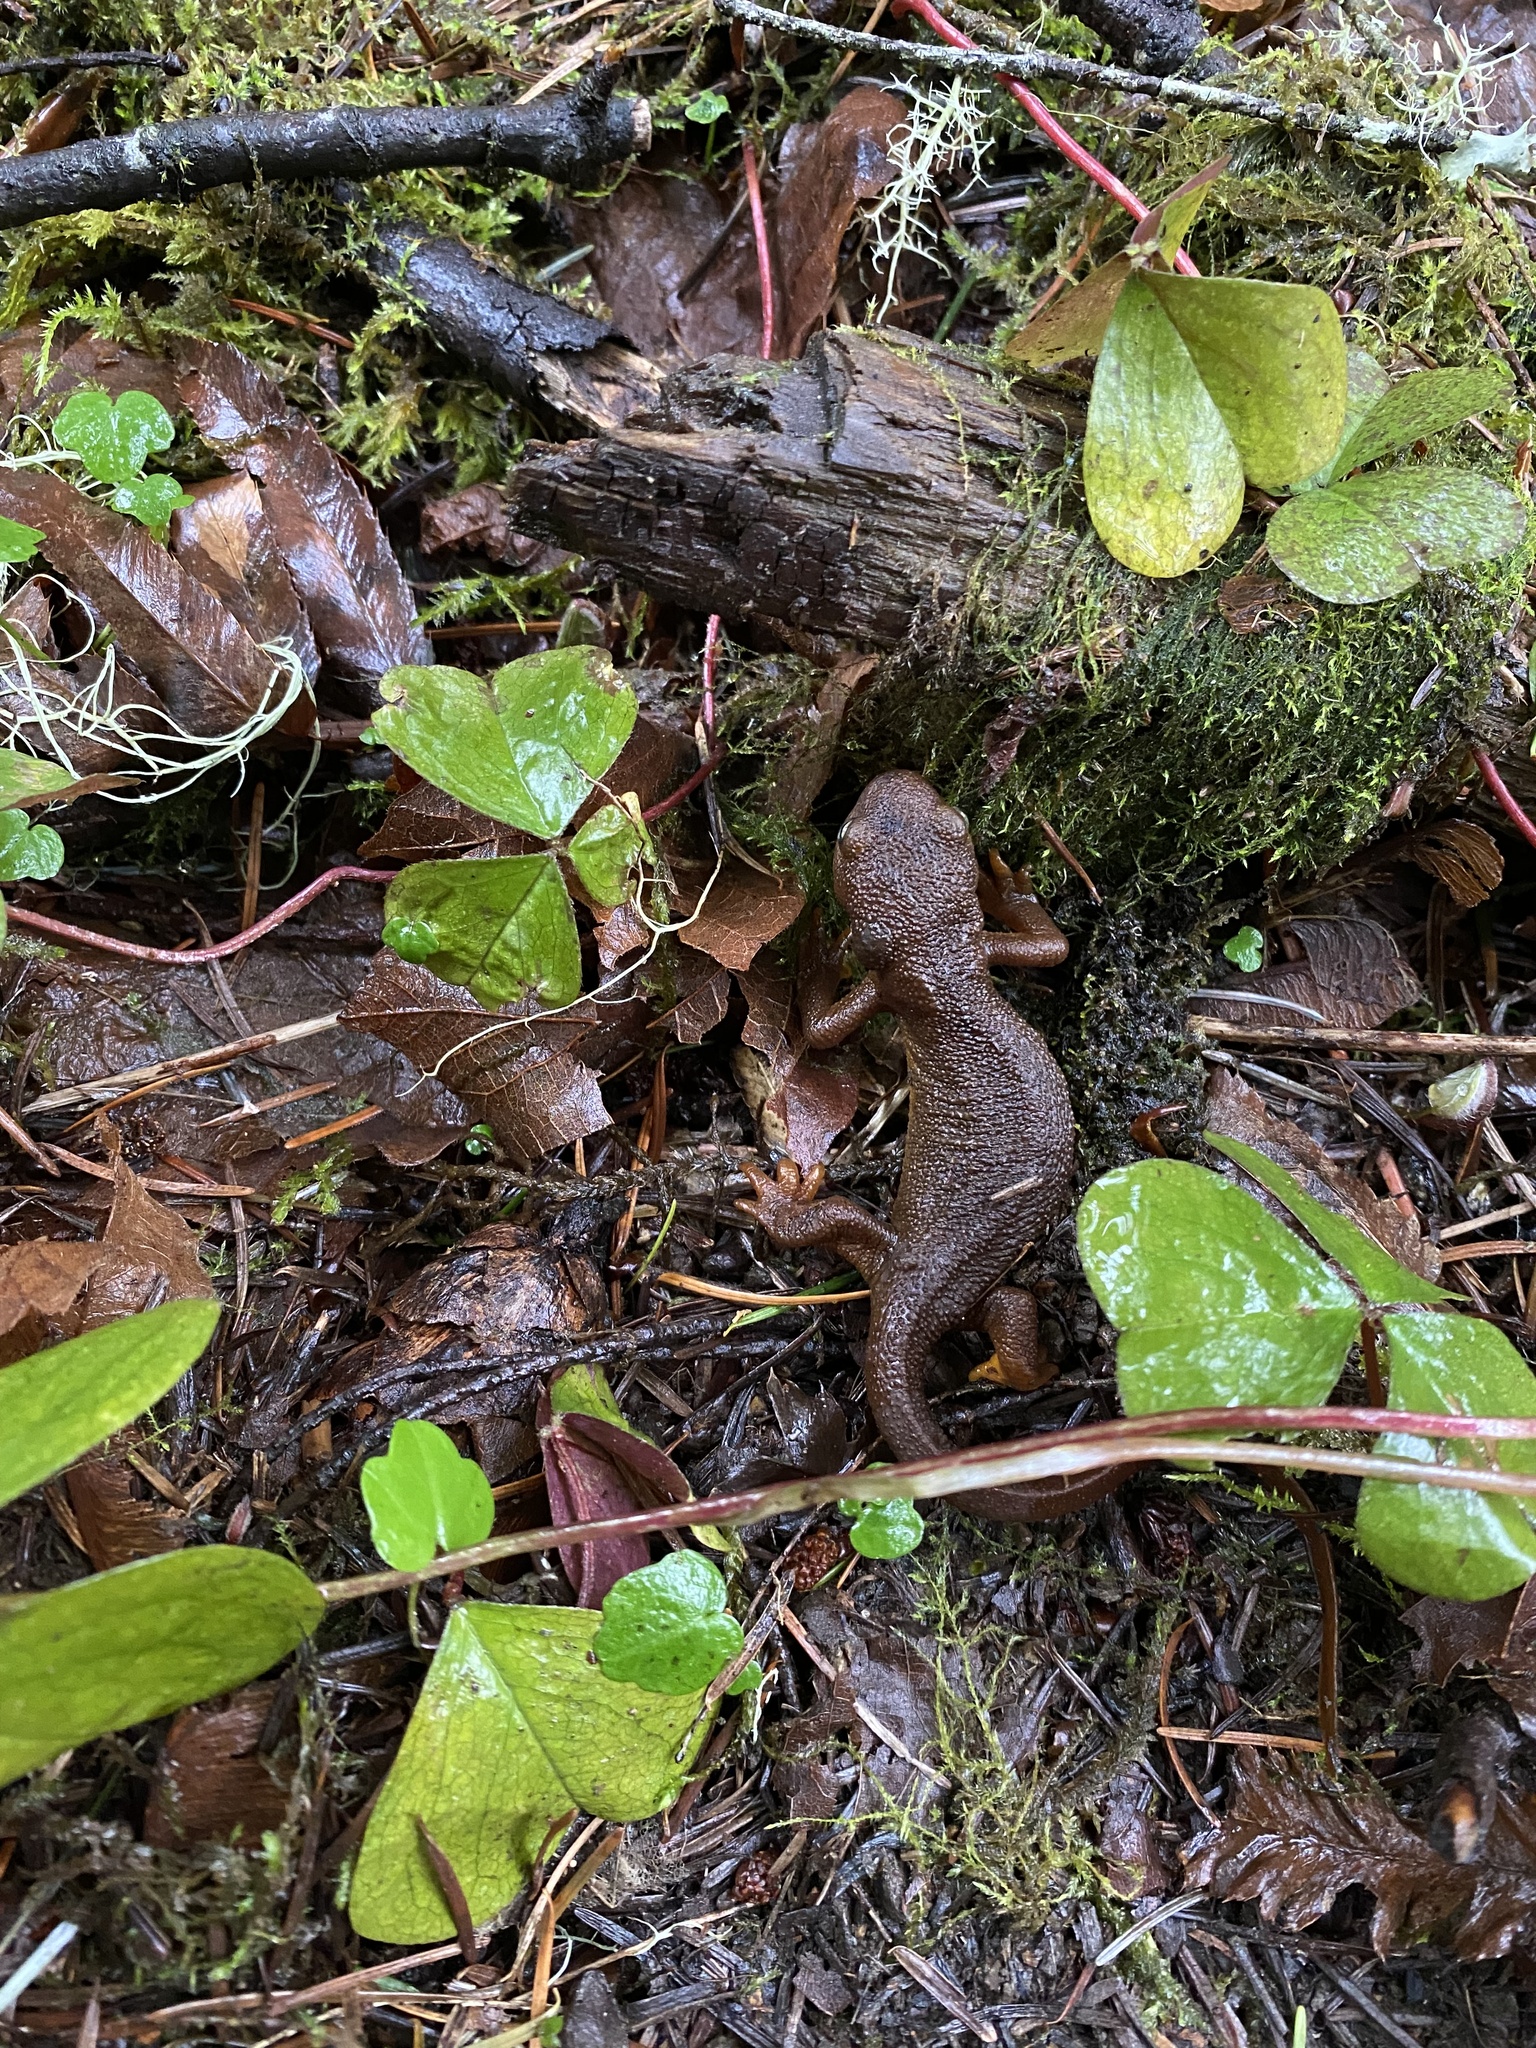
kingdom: Animalia
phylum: Chordata
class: Amphibia
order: Caudata
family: Salamandridae
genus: Taricha
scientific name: Taricha granulosa
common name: Roughskin newt
